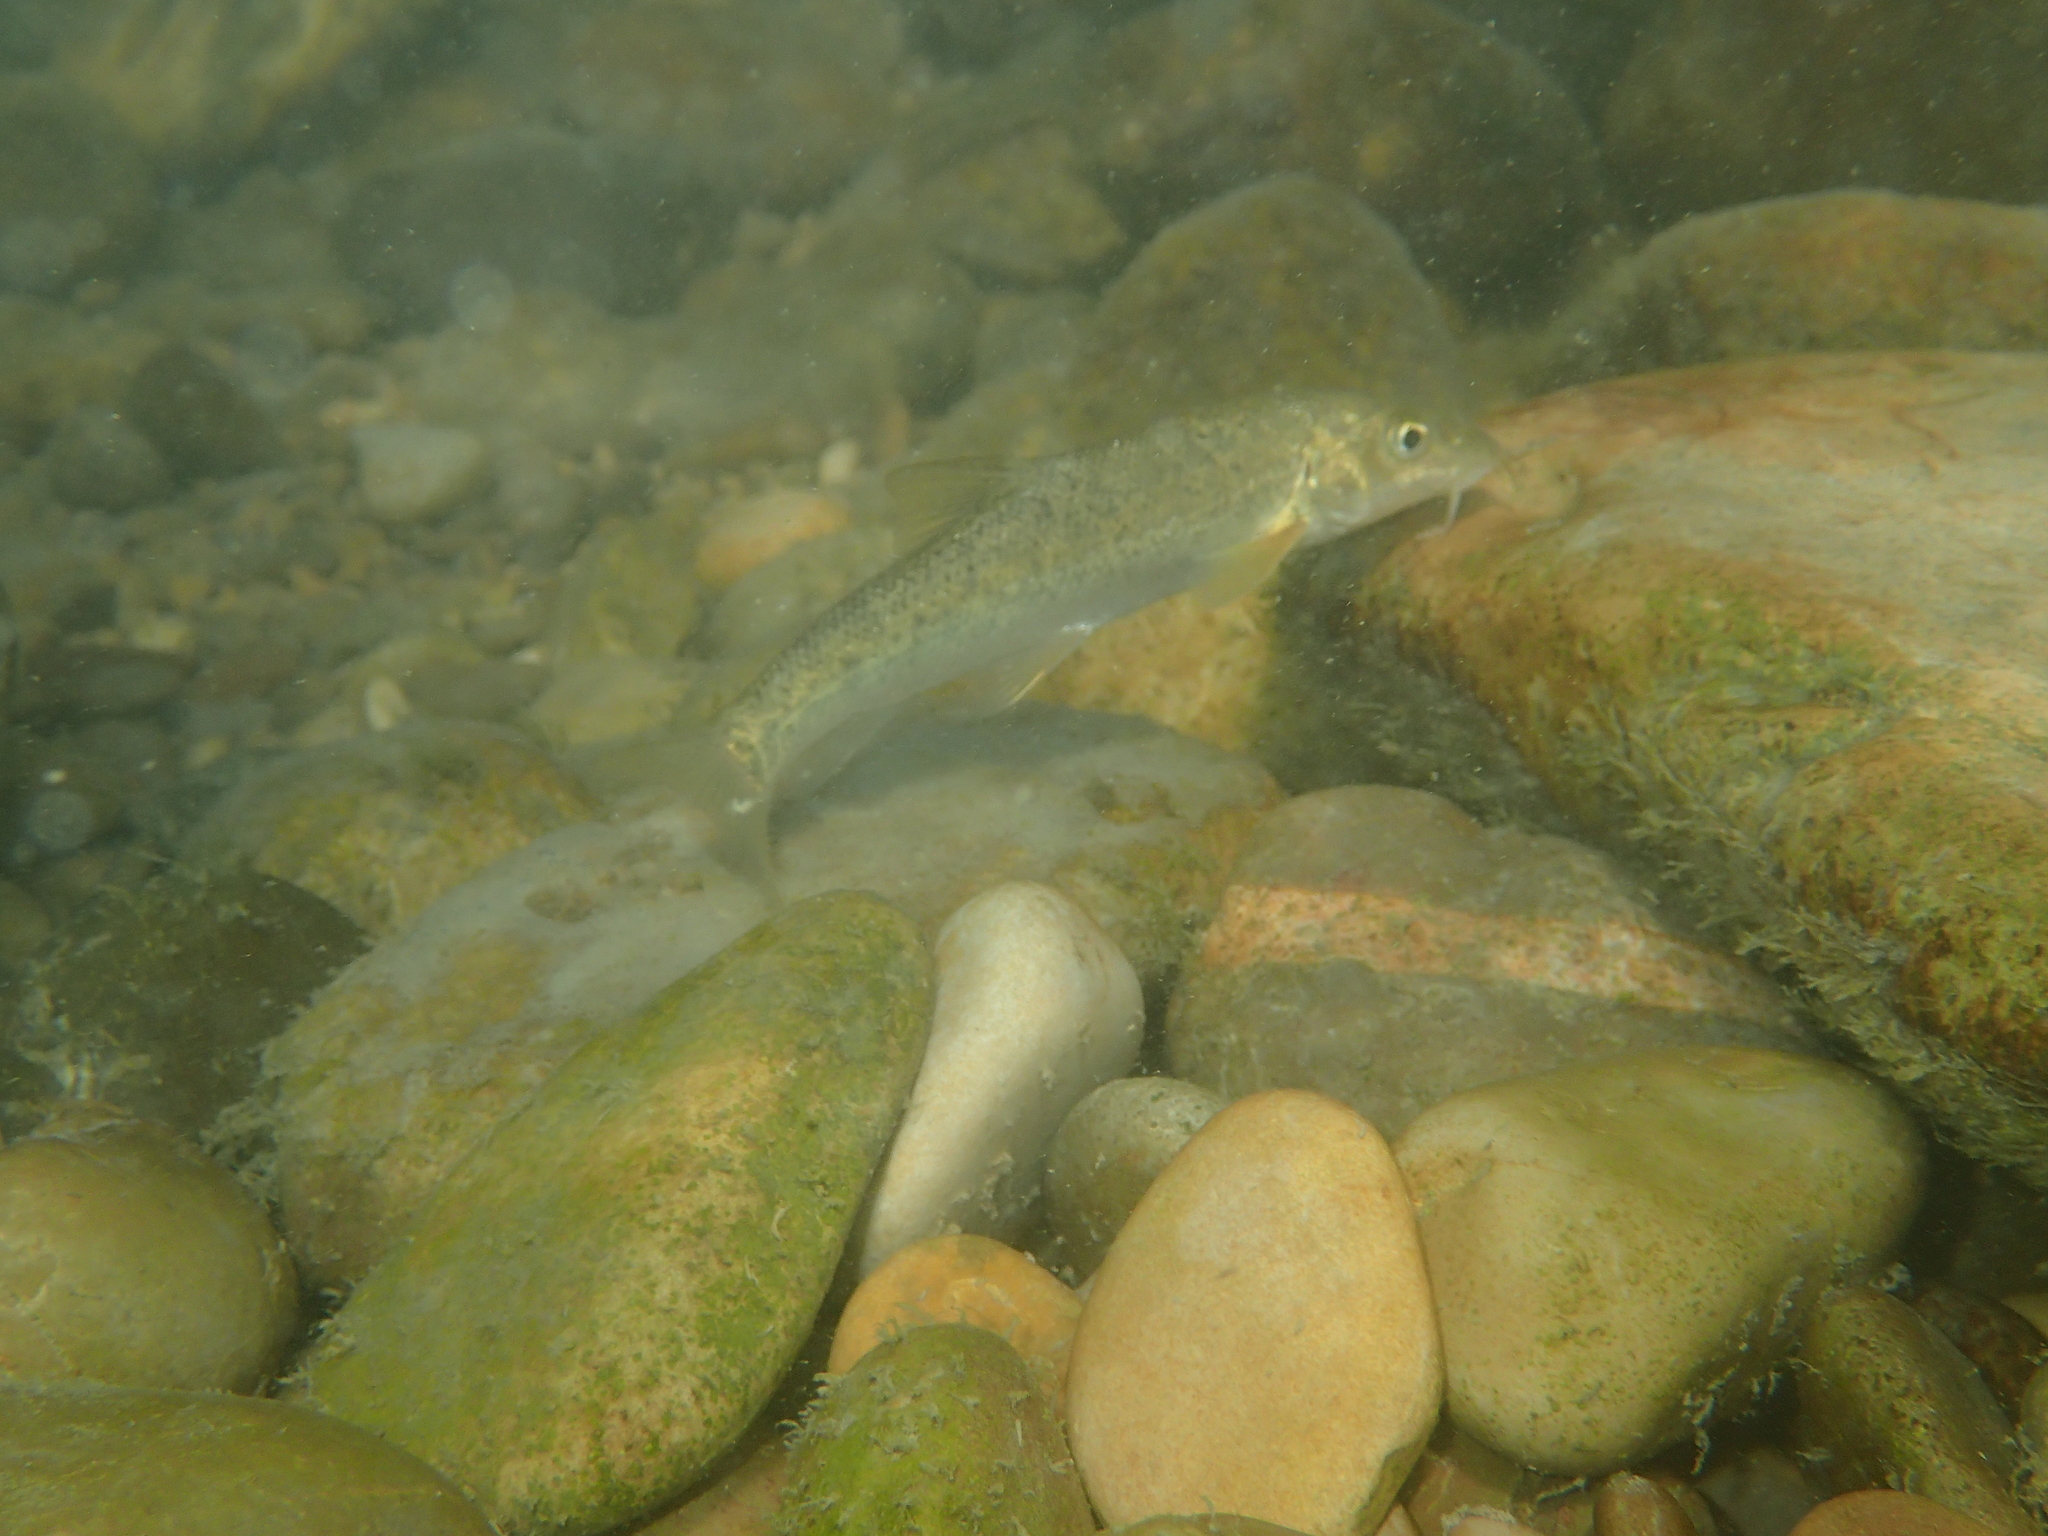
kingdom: Animalia
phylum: Chordata
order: Cypriniformes
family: Cyprinidae
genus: Barbus
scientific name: Barbus barbus
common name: Barbel
